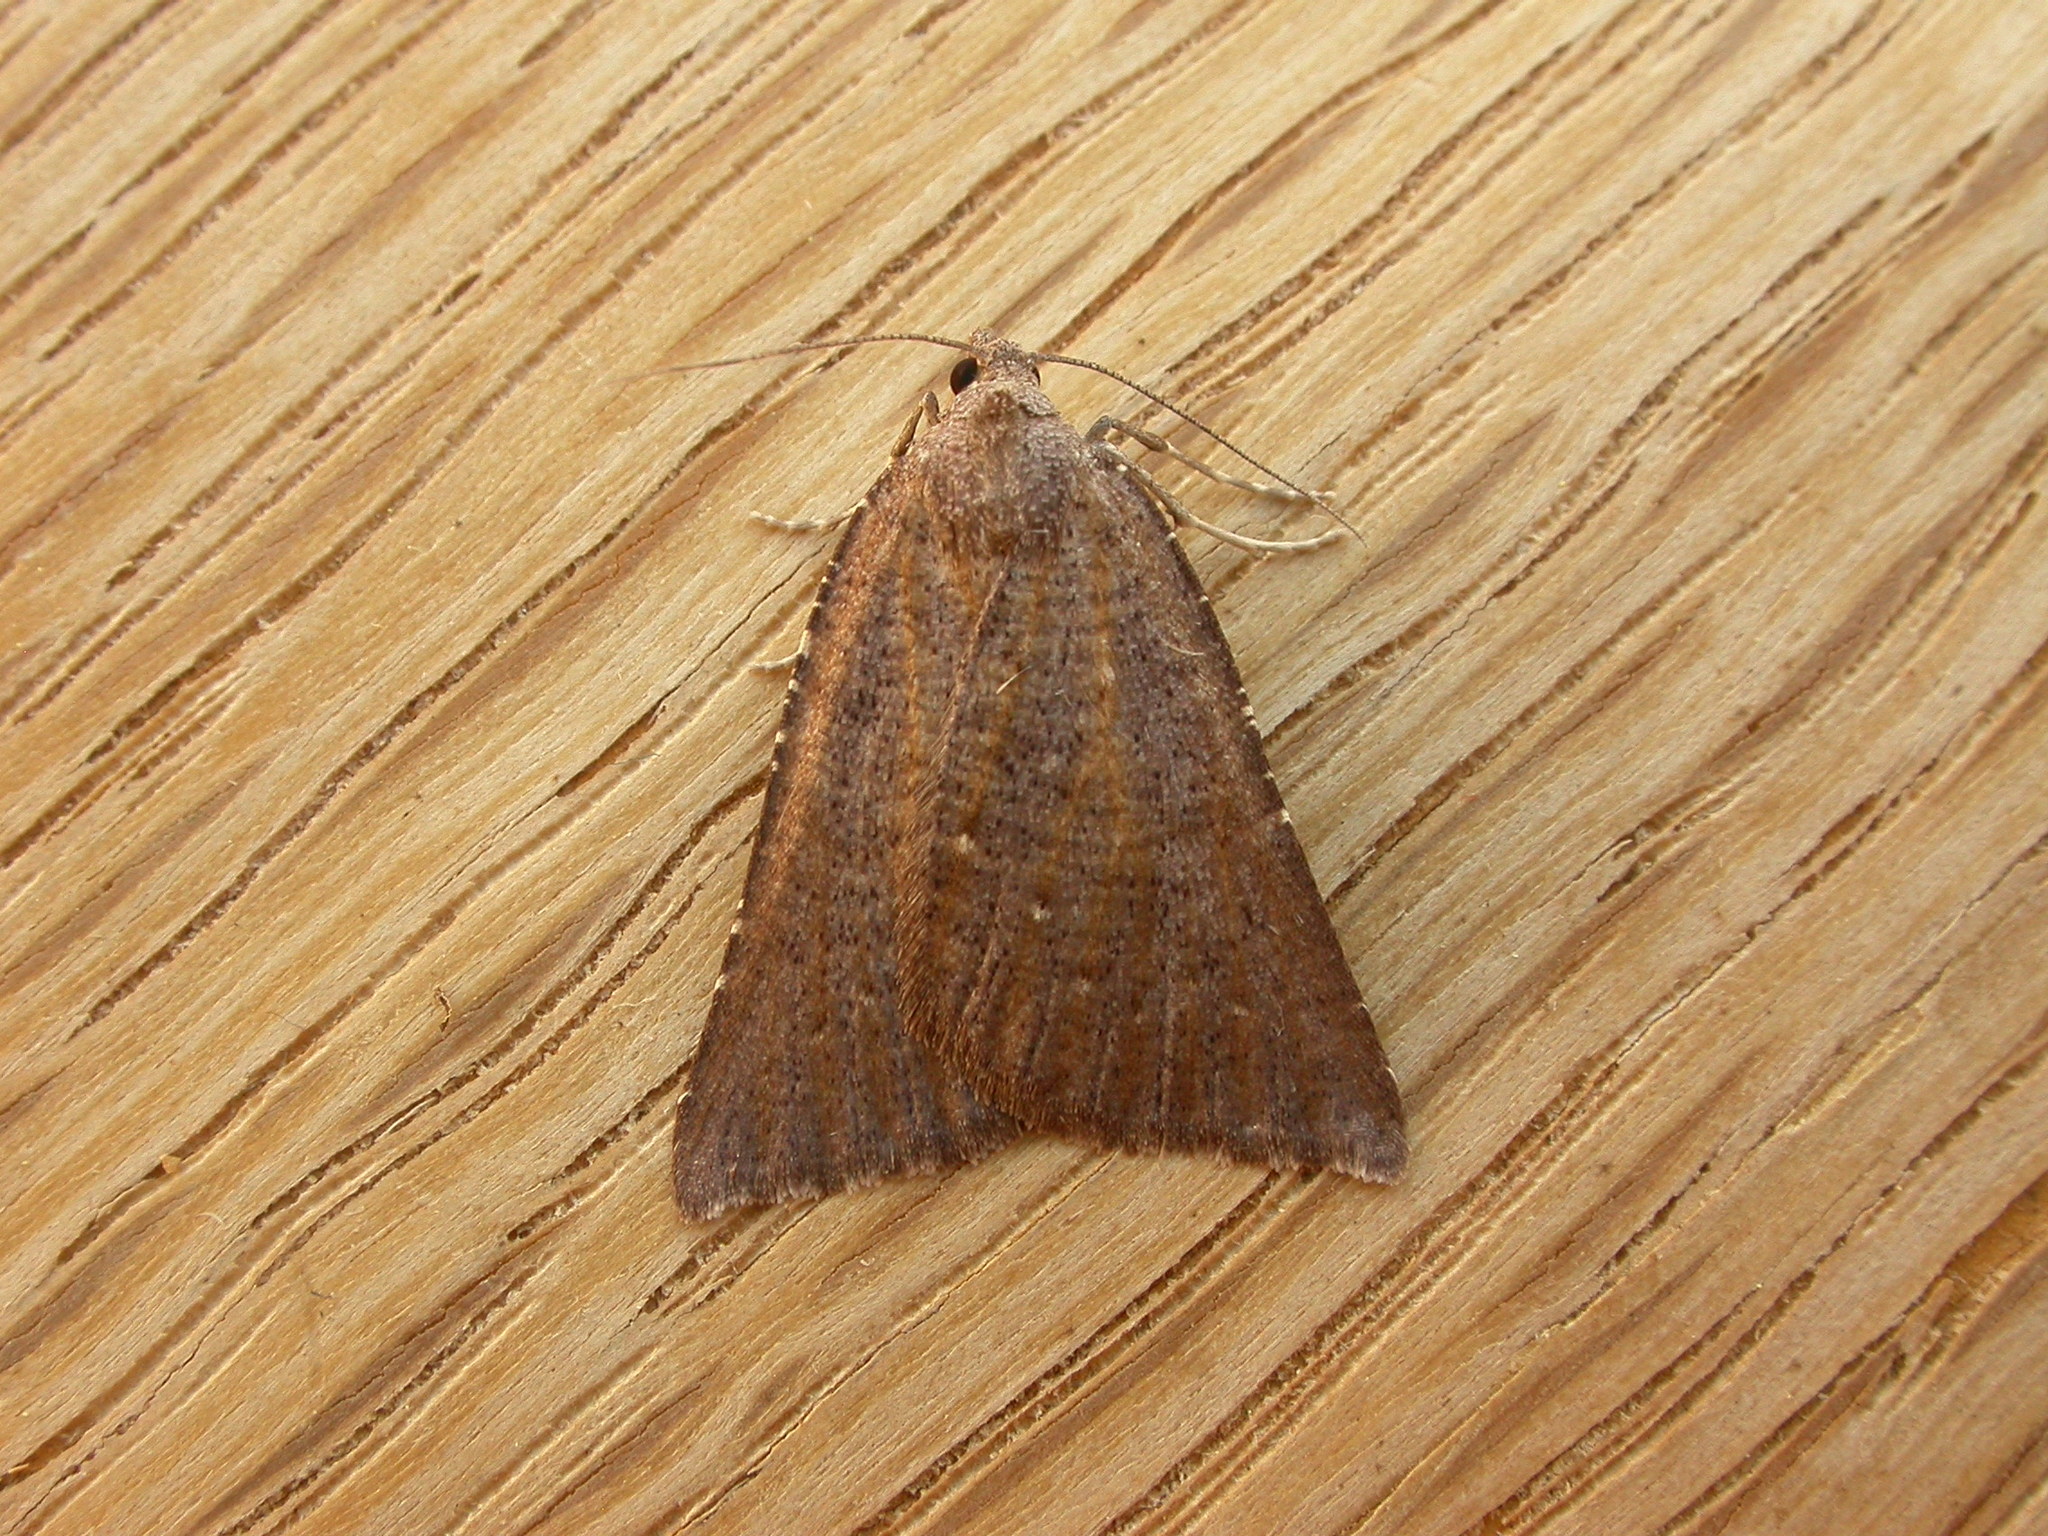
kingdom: Animalia
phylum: Arthropoda
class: Insecta
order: Lepidoptera
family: Geometridae
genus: Amelora
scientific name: Amelora arotraea
